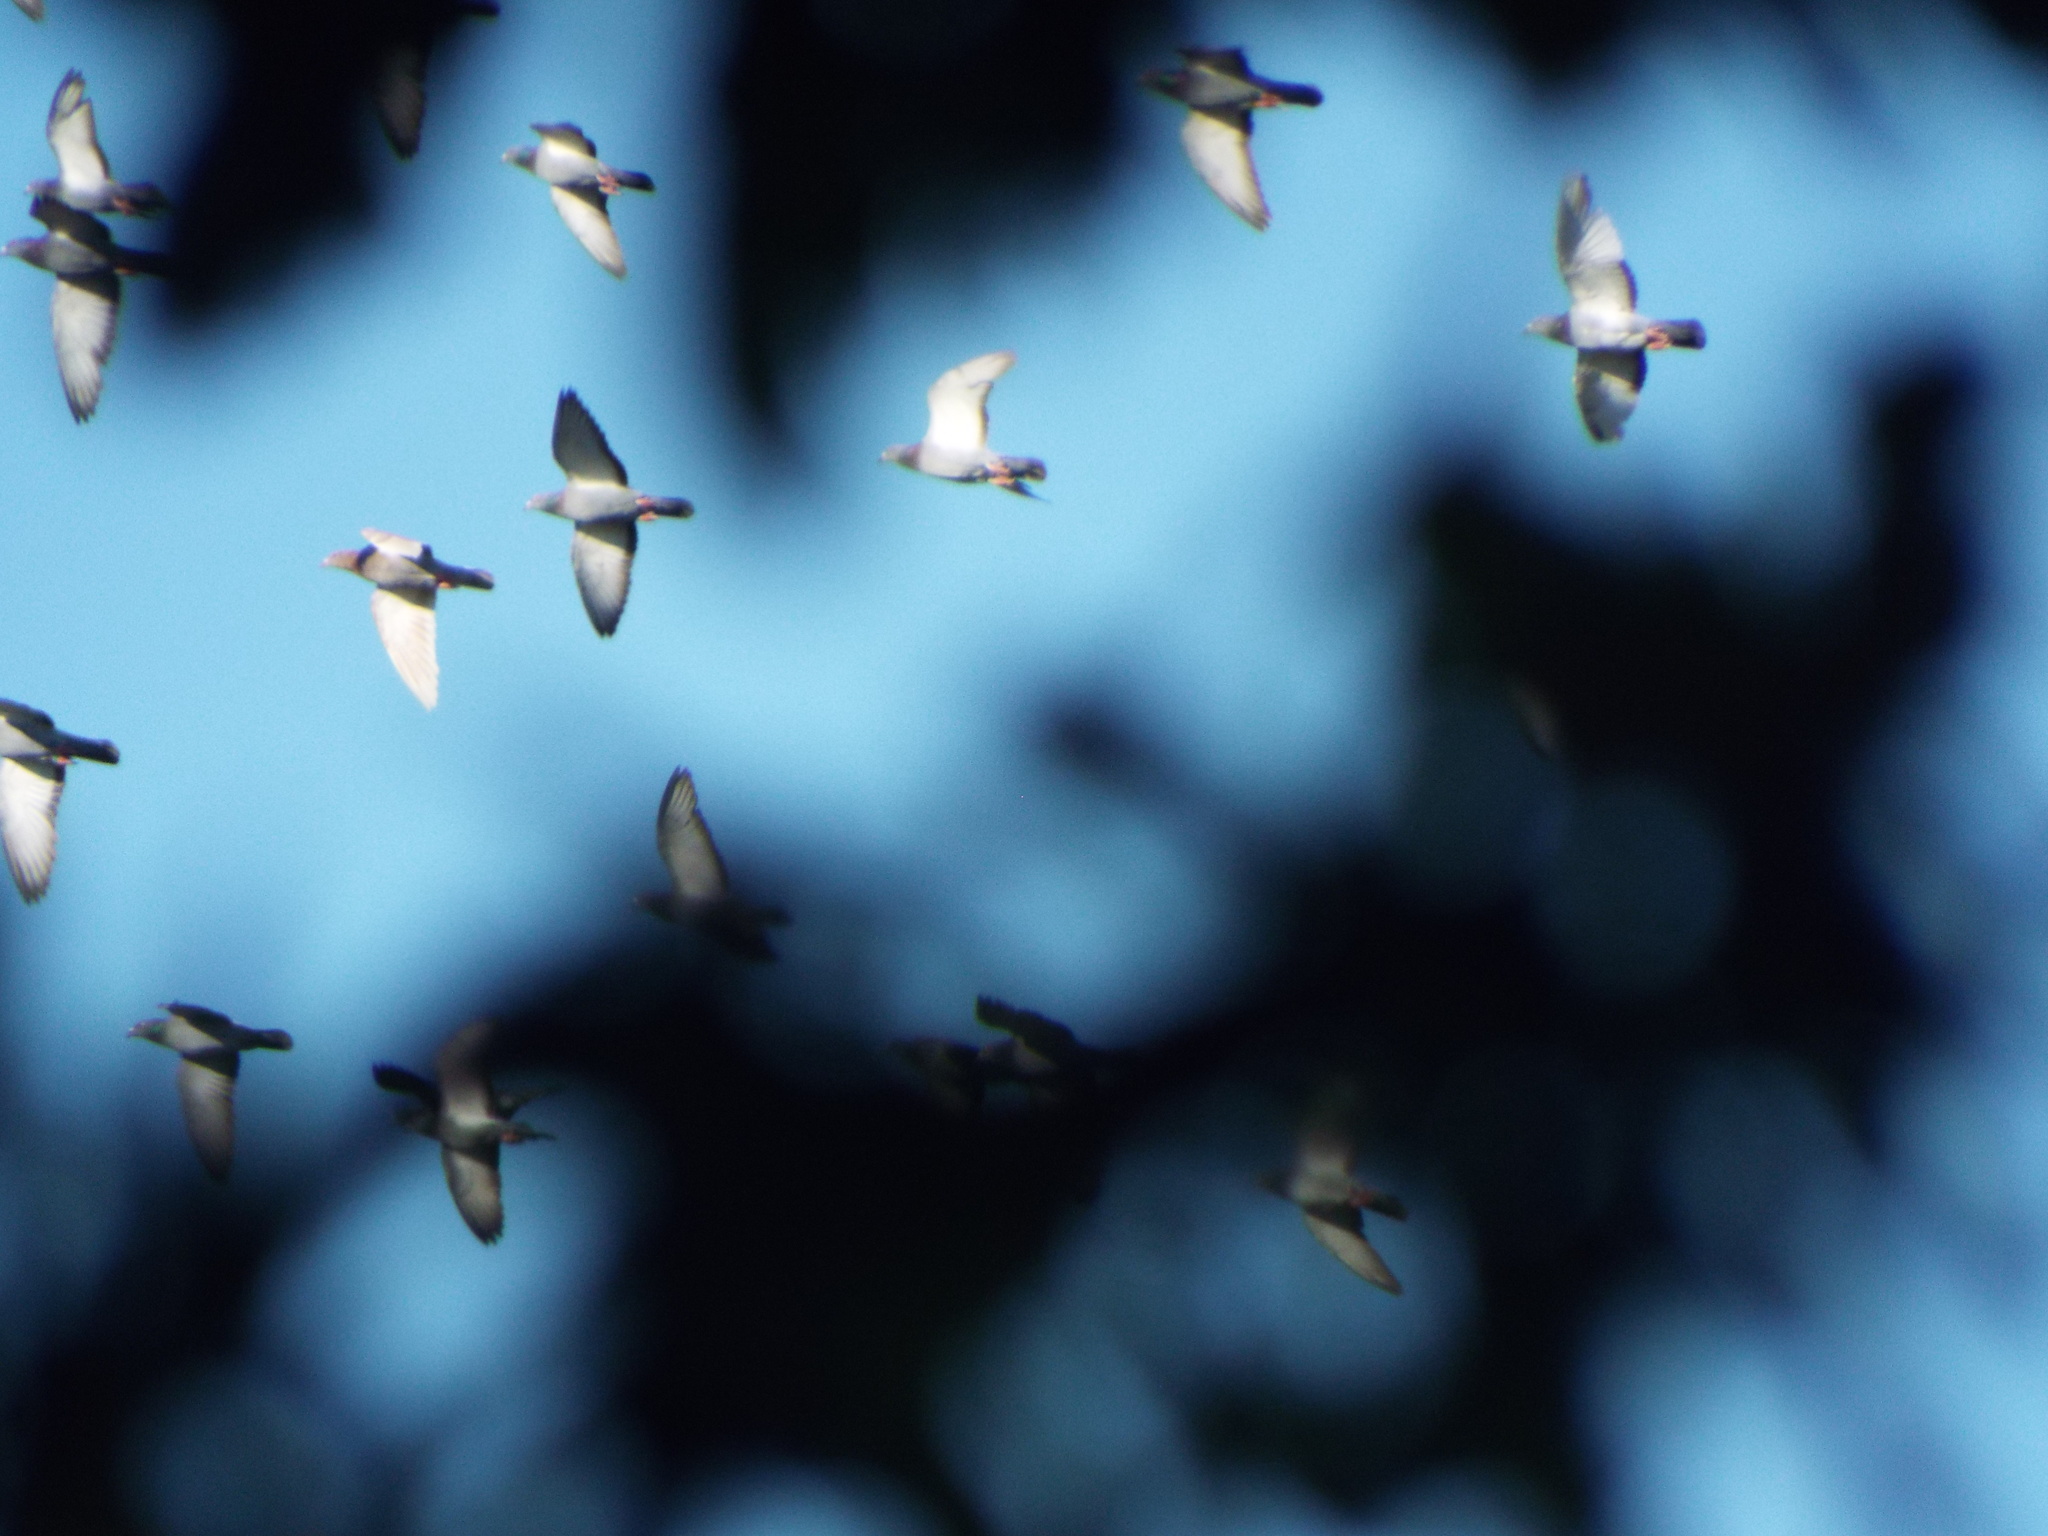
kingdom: Animalia
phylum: Chordata
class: Aves
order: Columbiformes
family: Columbidae
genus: Columba
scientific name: Columba livia
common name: Rock pigeon
